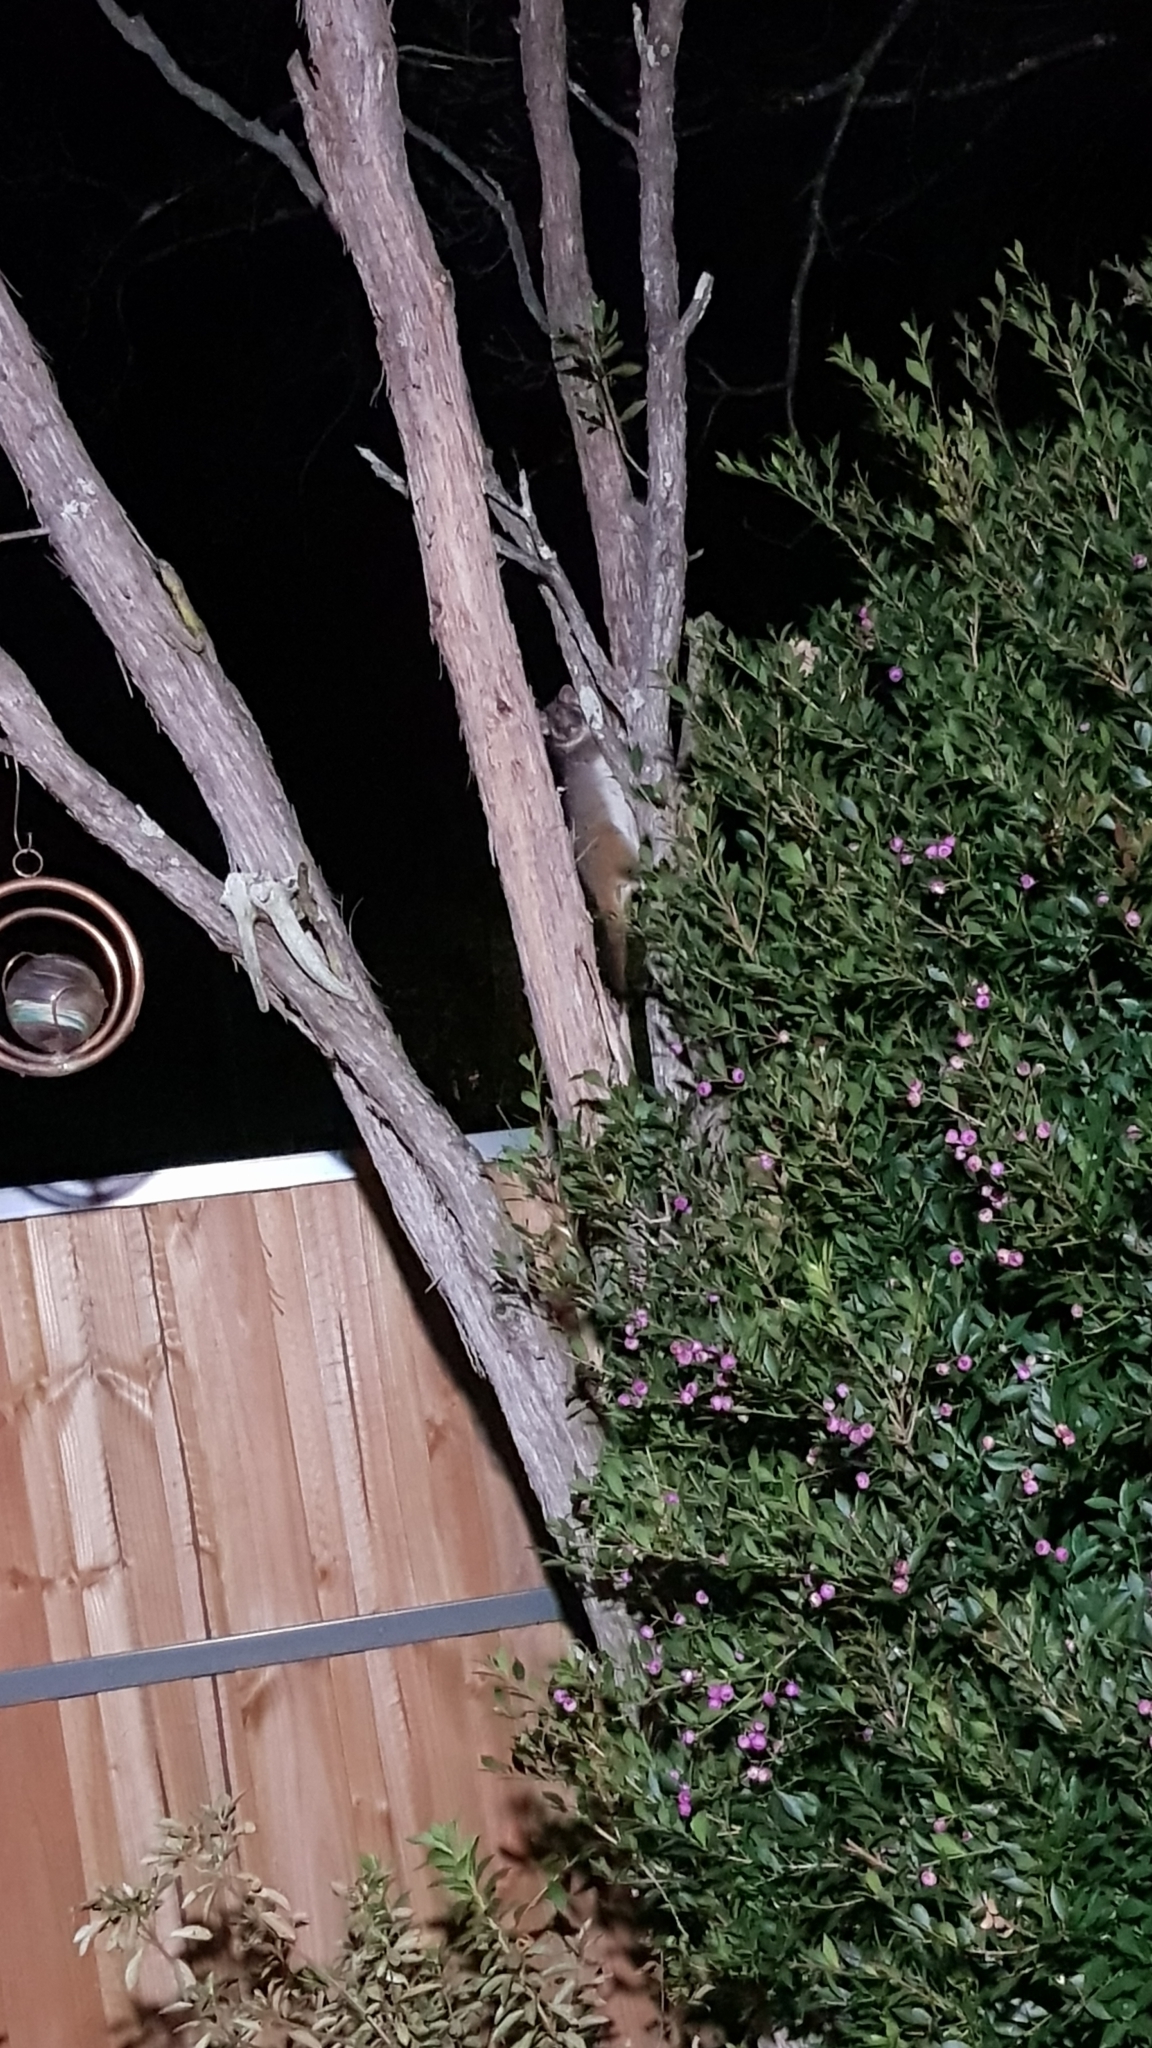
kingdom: Animalia
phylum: Chordata
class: Mammalia
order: Diprotodontia
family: Pseudocheiridae
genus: Pseudocheirus
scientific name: Pseudocheirus peregrinus
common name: Common ringtail possum
